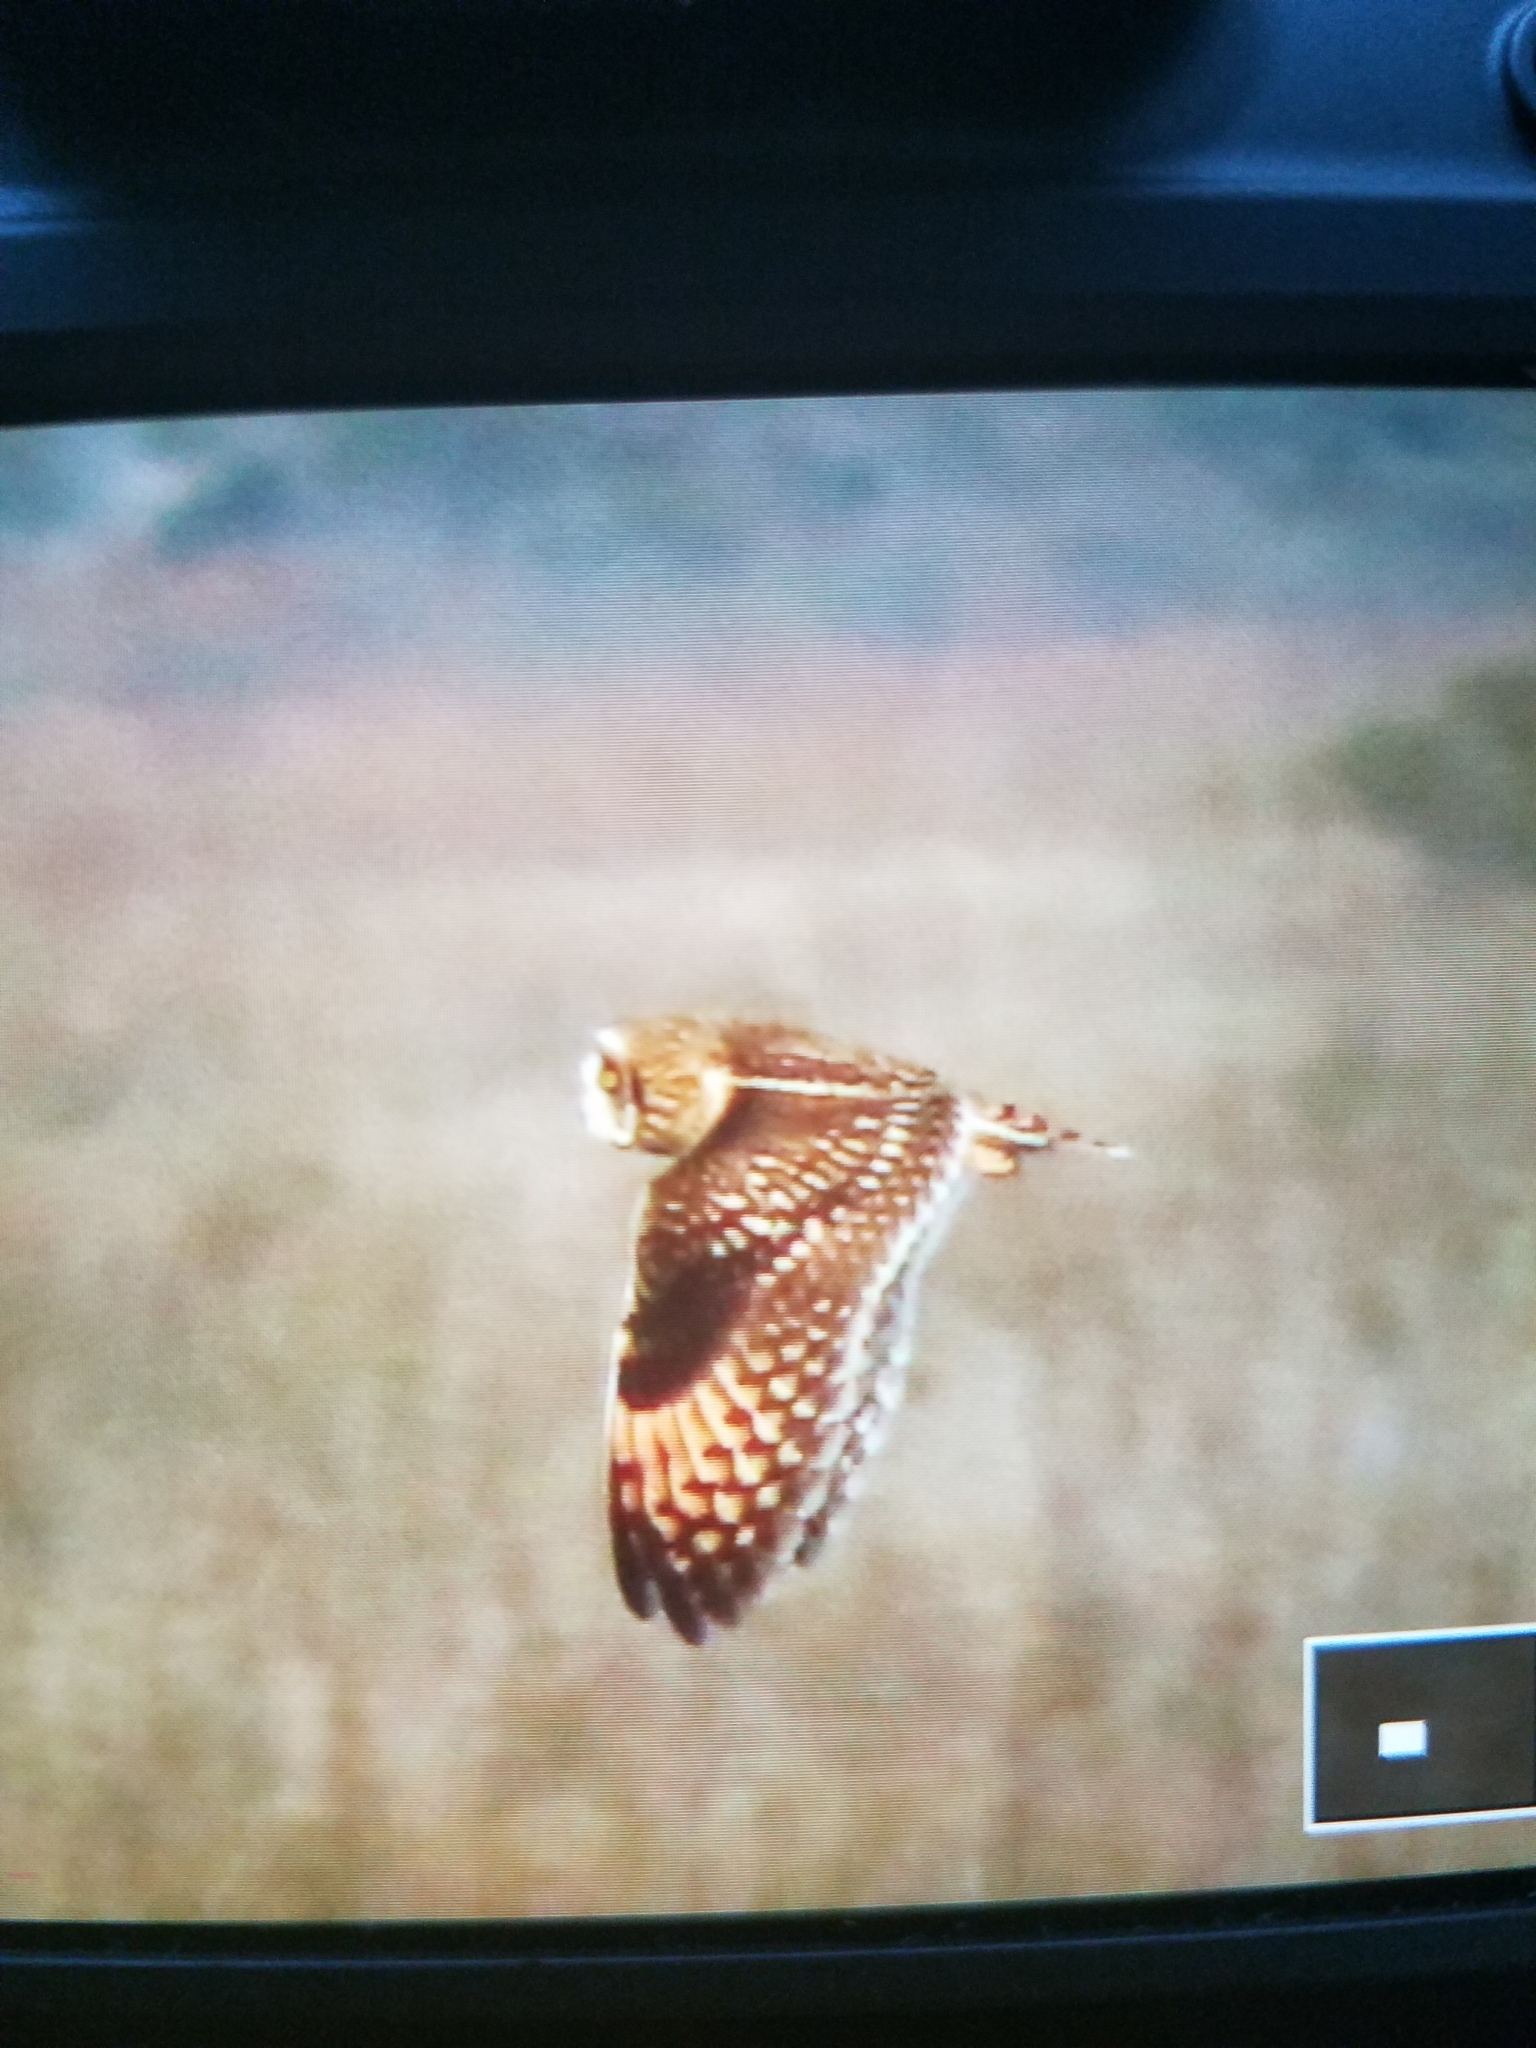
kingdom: Animalia
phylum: Chordata
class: Aves
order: Strigiformes
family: Strigidae
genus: Asio
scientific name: Asio flammeus
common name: Short-eared owl
